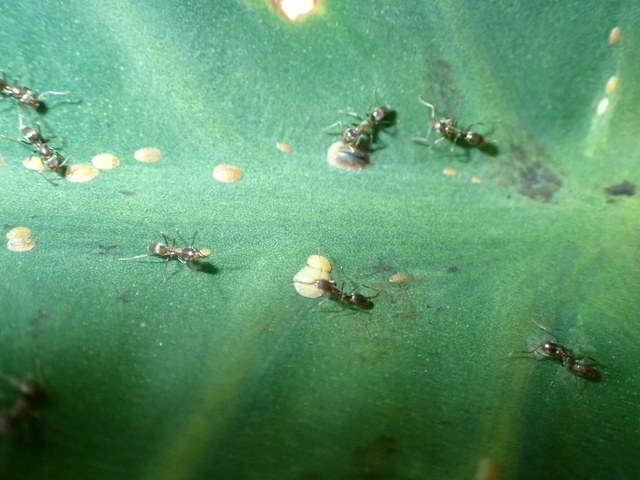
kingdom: Animalia
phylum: Arthropoda
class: Insecta
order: Hymenoptera
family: Formicidae
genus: Linepithema
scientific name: Linepithema humile
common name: Argentine ant
